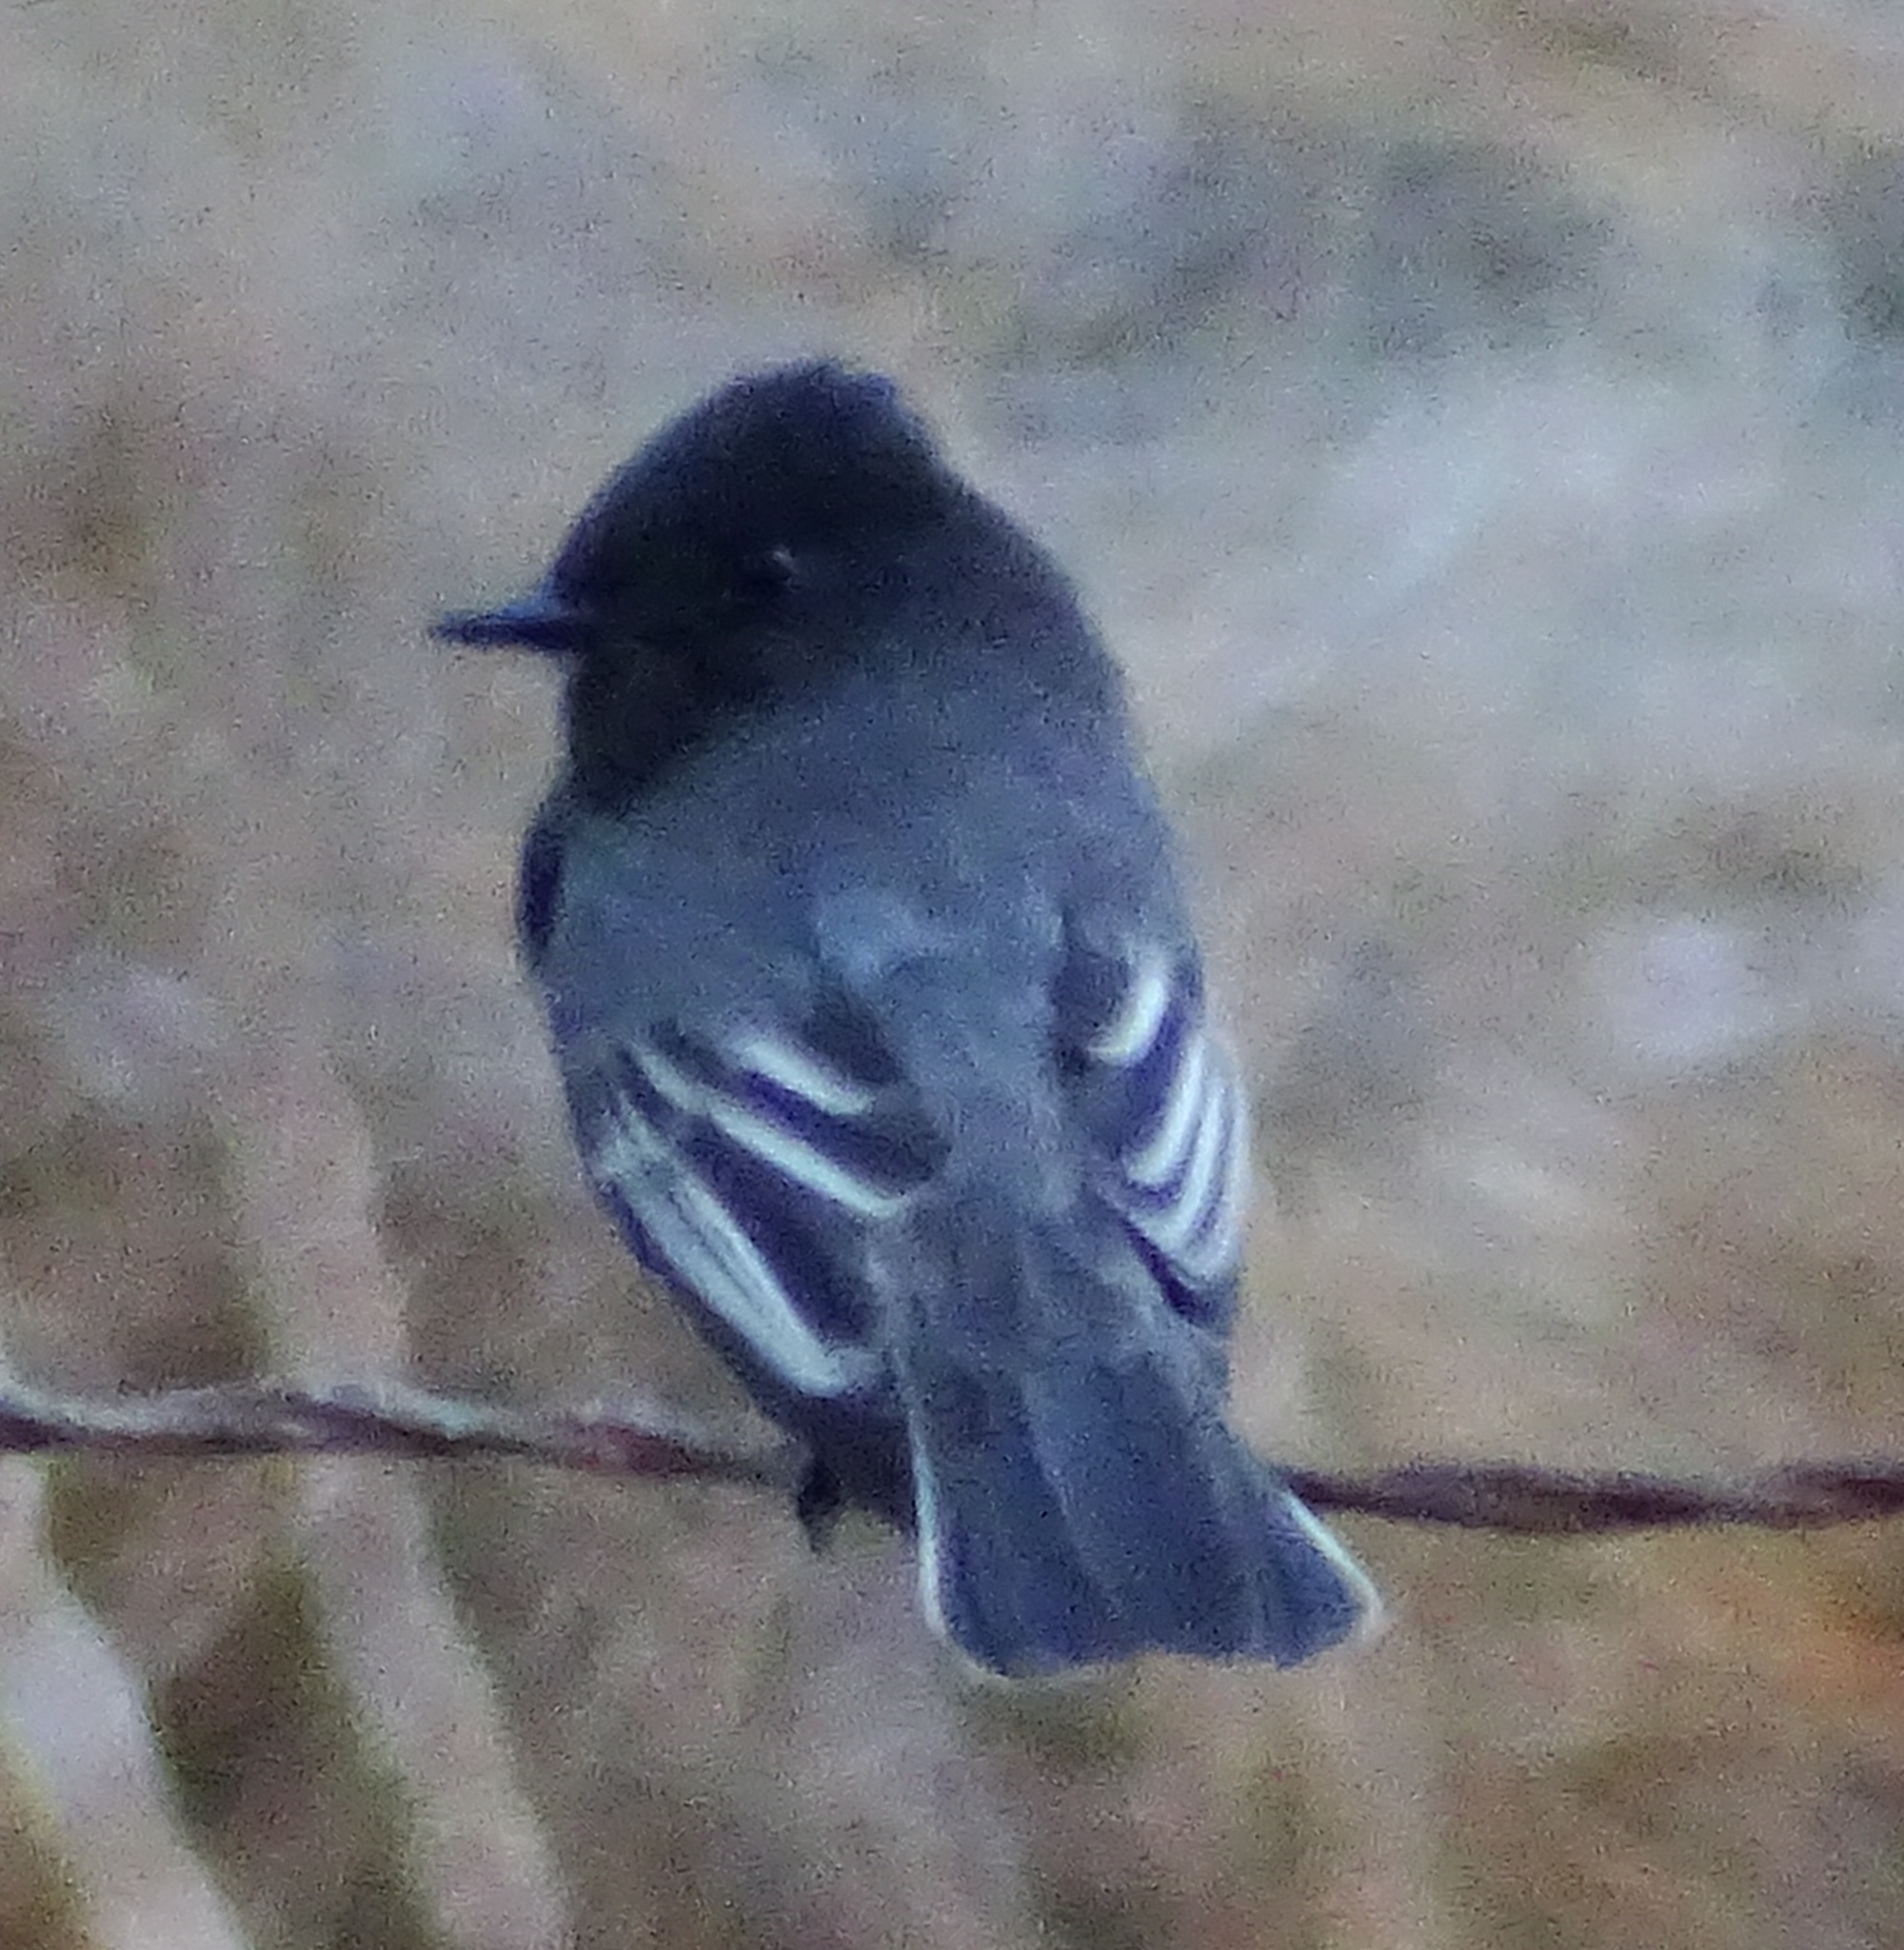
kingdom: Animalia
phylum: Chordata
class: Aves
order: Passeriformes
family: Tyrannidae
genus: Sayornis
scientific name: Sayornis nigricans
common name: Black phoebe
